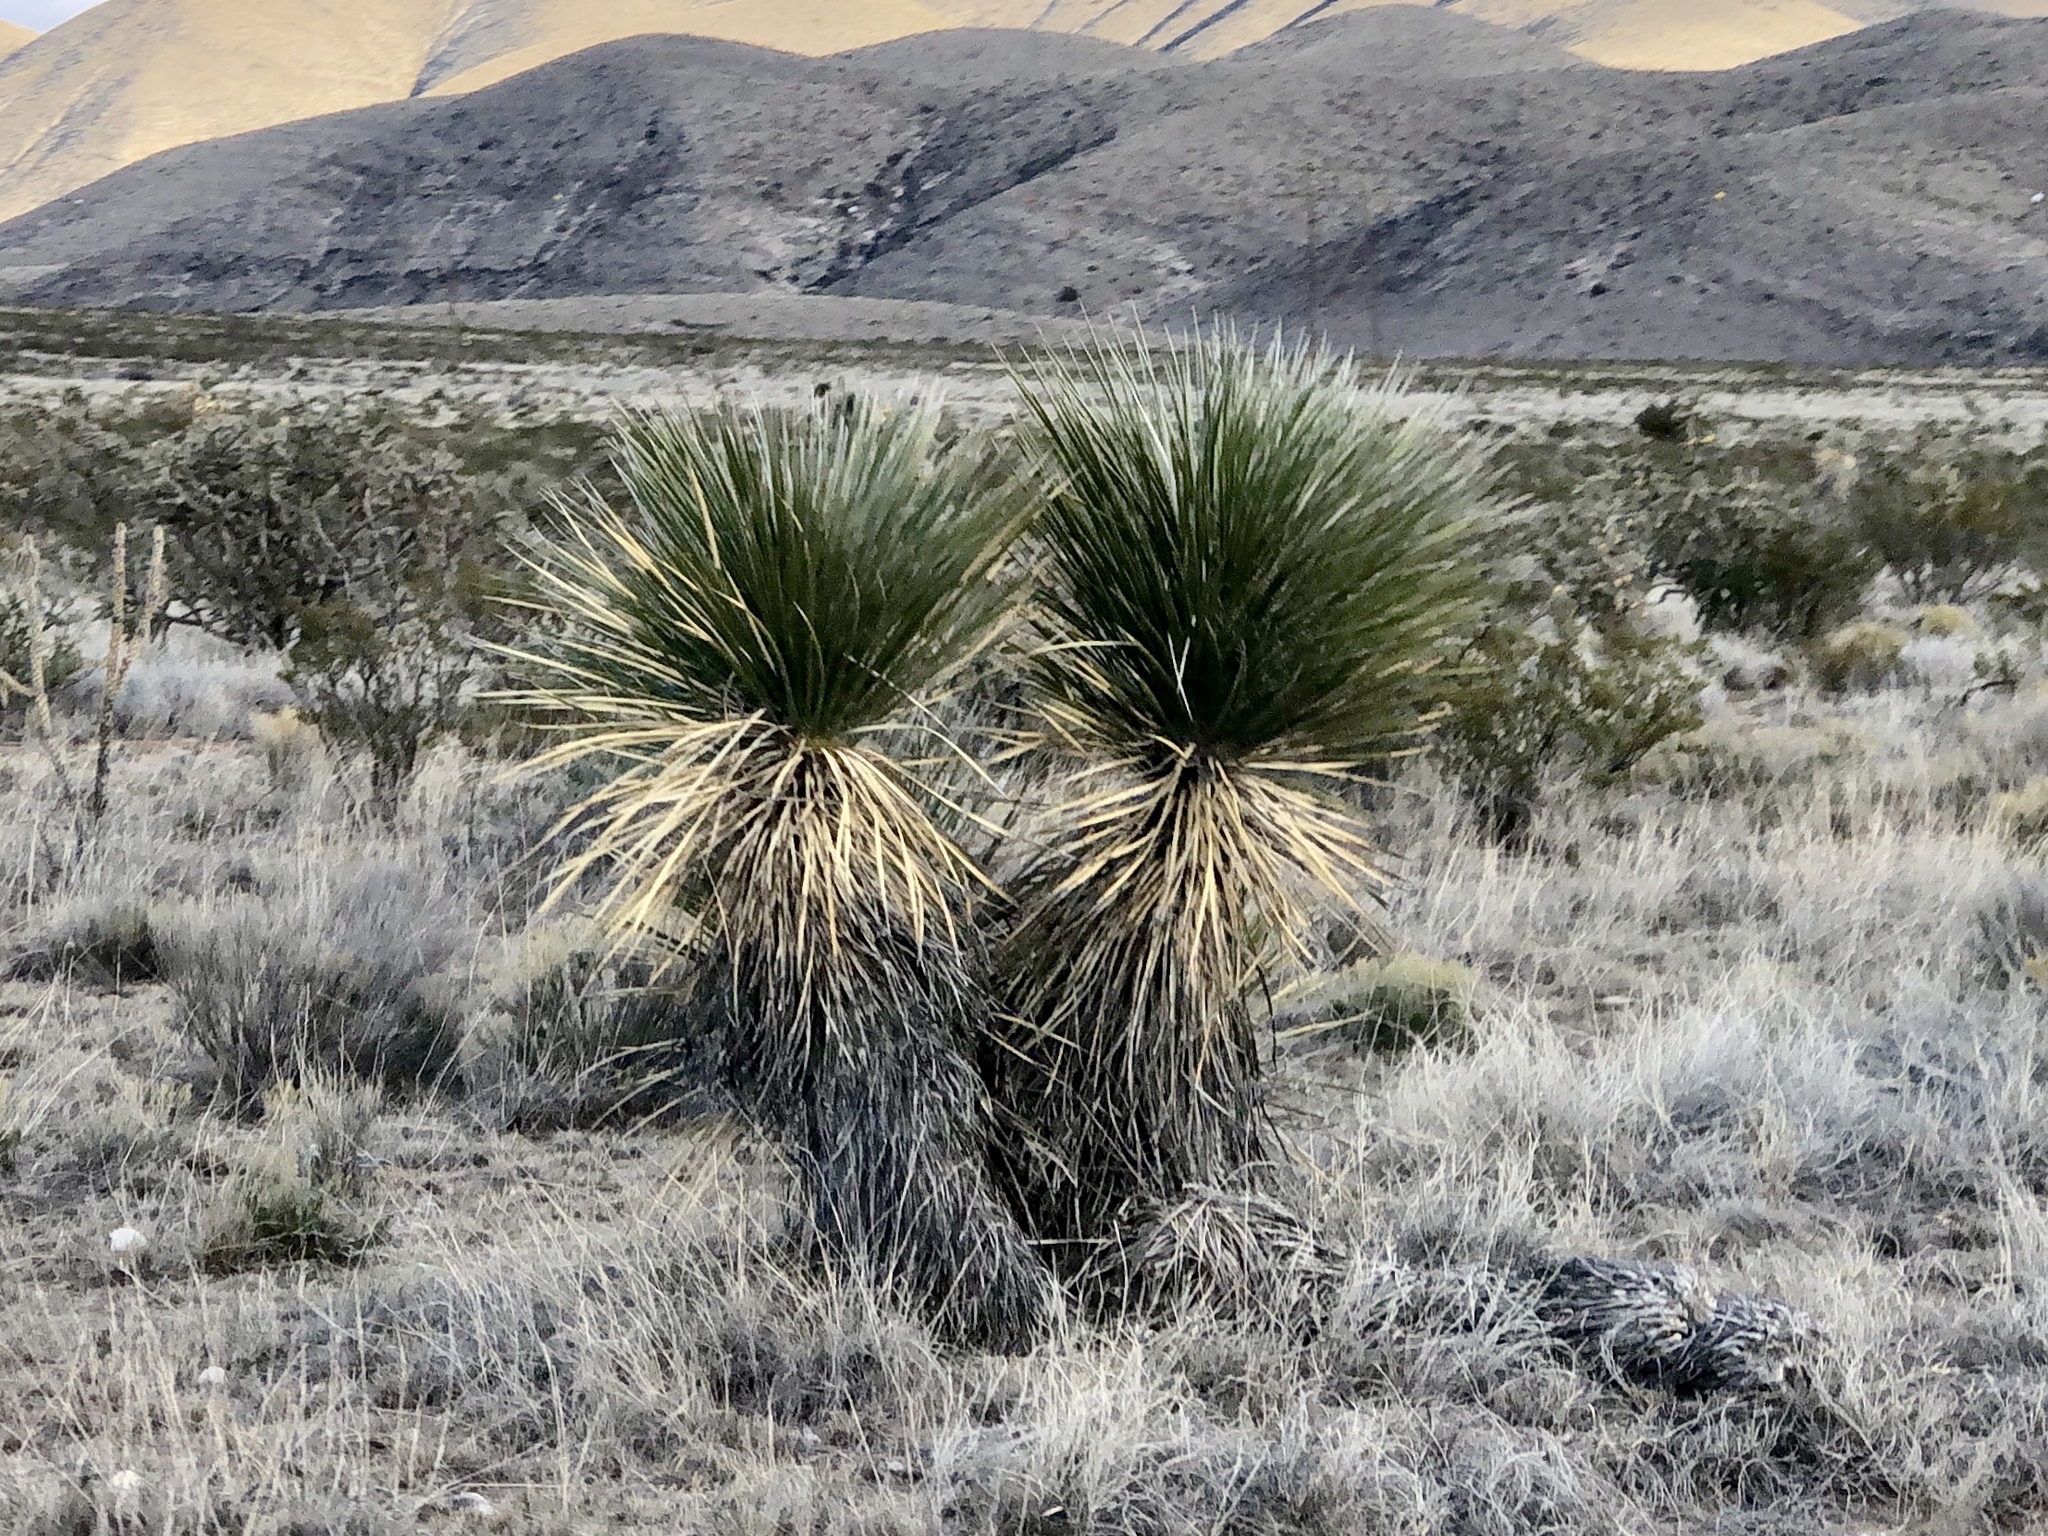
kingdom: Plantae
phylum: Tracheophyta
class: Liliopsida
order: Asparagales
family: Asparagaceae
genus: Yucca
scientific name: Yucca elata
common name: Palmella
